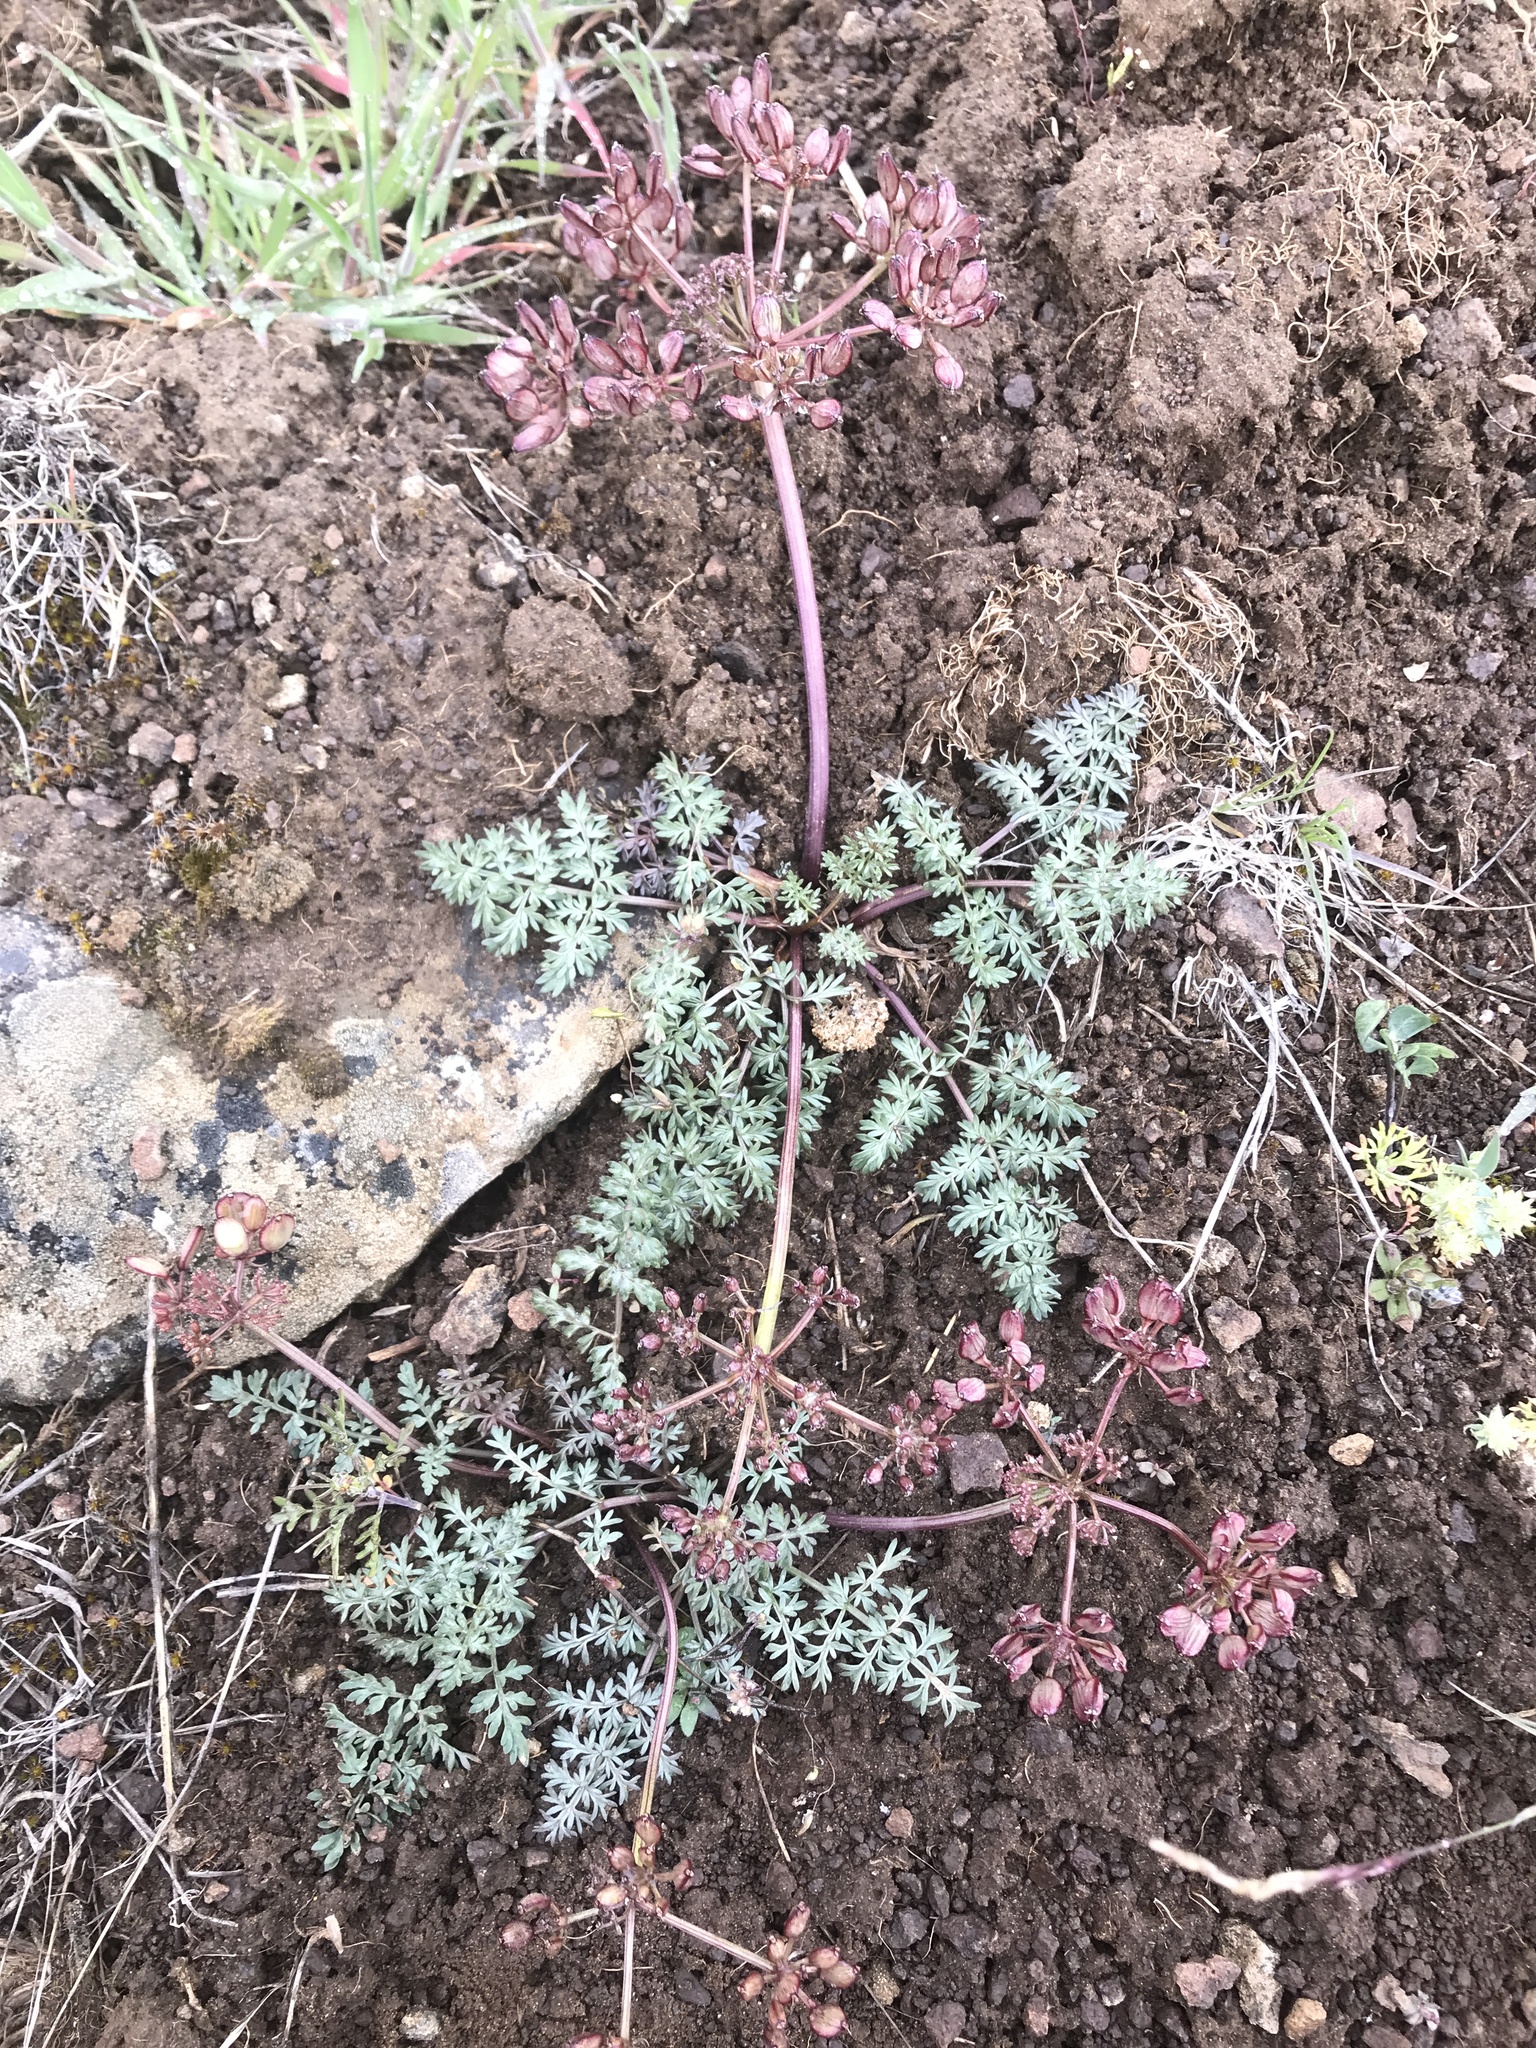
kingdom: Plantae
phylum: Tracheophyta
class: Magnoliopsida
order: Apiales
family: Apiaceae
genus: Lomatium
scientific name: Lomatium canbyi
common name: Chucklusa
